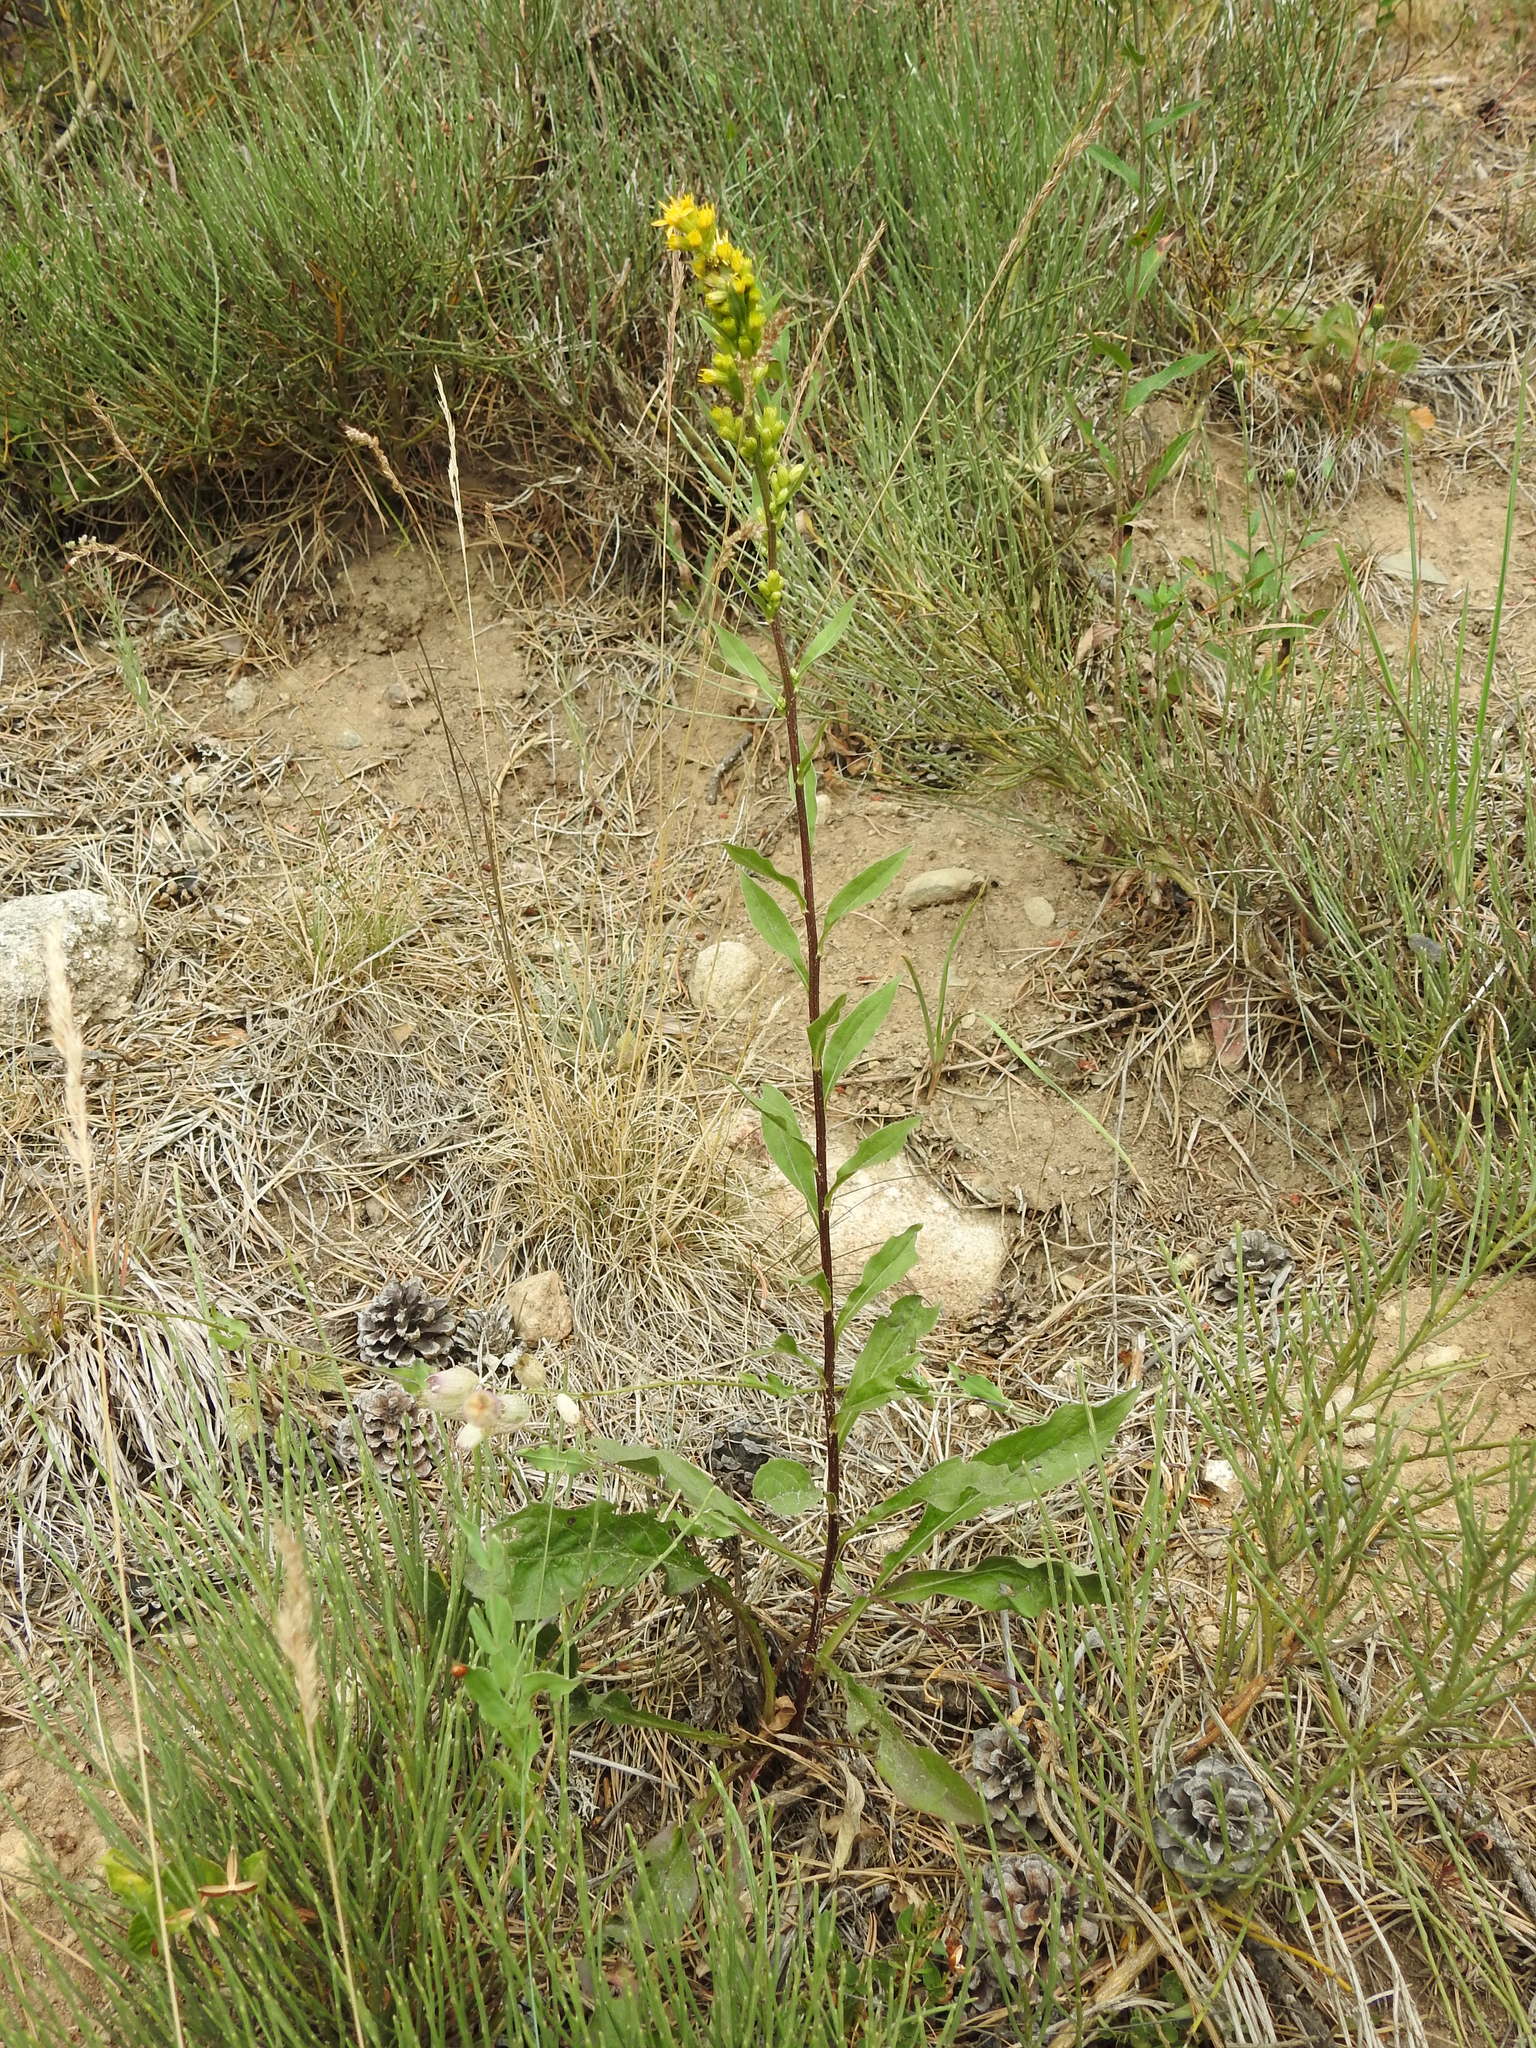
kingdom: Plantae
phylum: Tracheophyta
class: Magnoliopsida
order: Asterales
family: Asteraceae
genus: Solidago
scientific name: Solidago virgaurea
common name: Goldenrod
